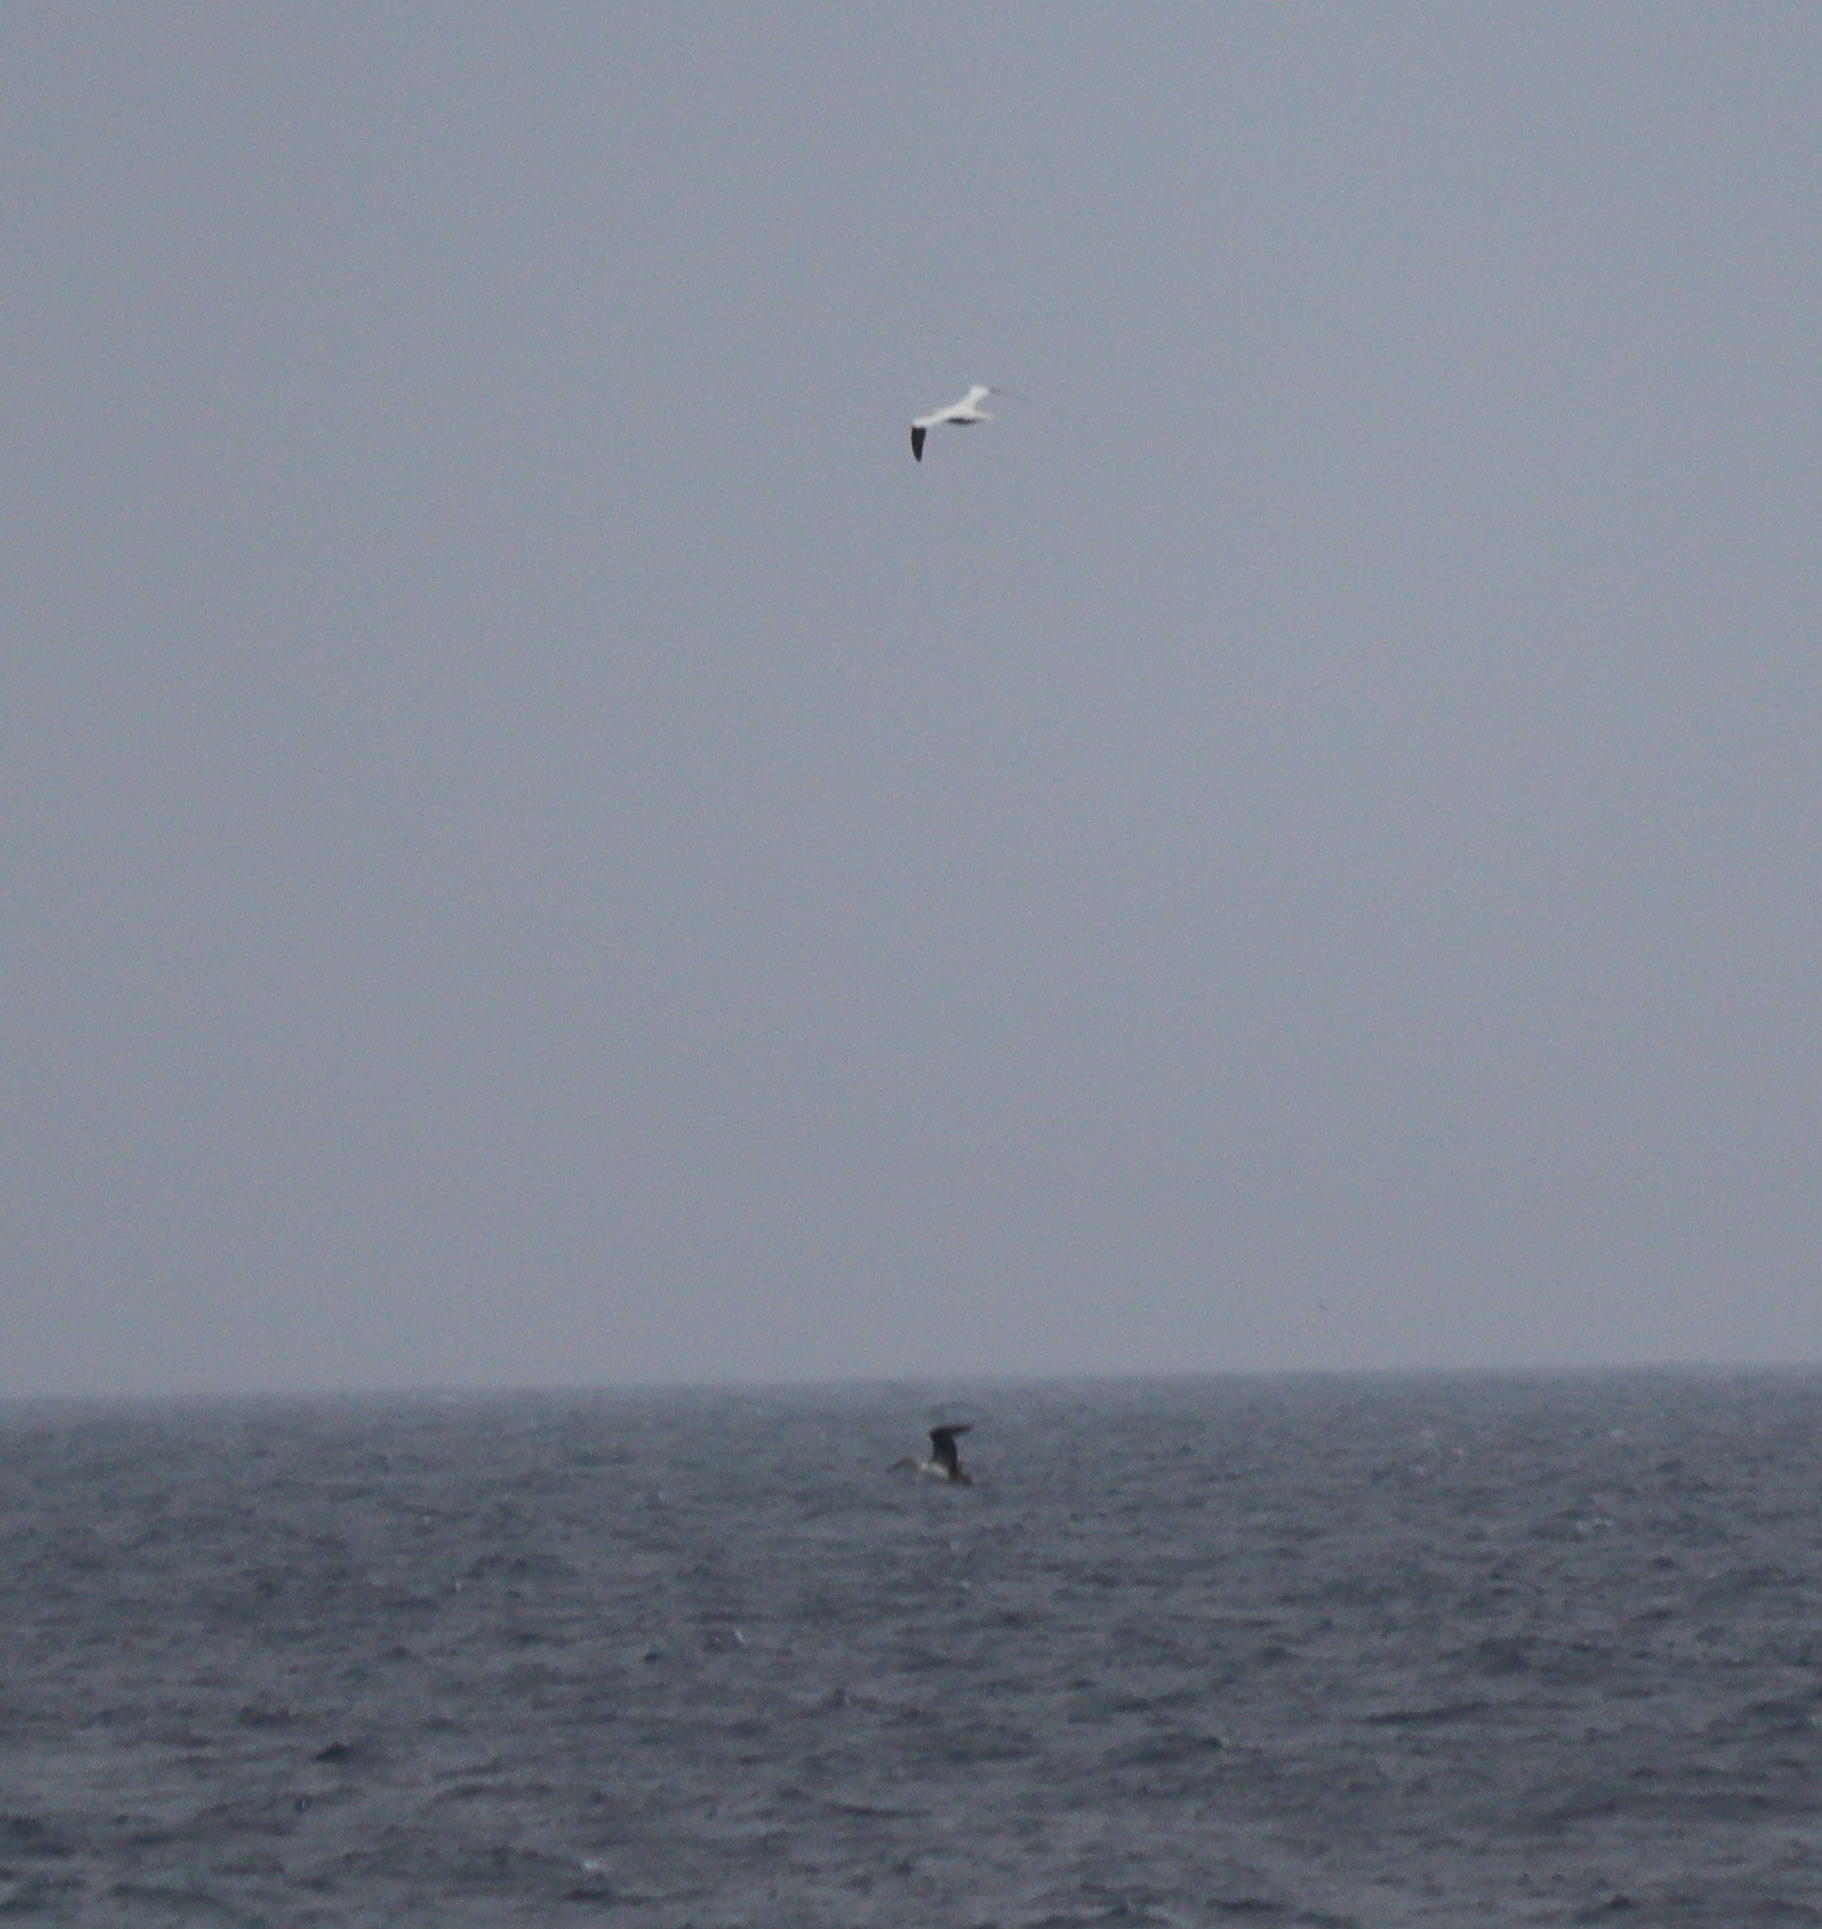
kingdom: Animalia
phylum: Chordata
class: Aves
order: Suliformes
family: Sulidae
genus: Morus
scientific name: Morus bassanus
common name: Northern gannet
